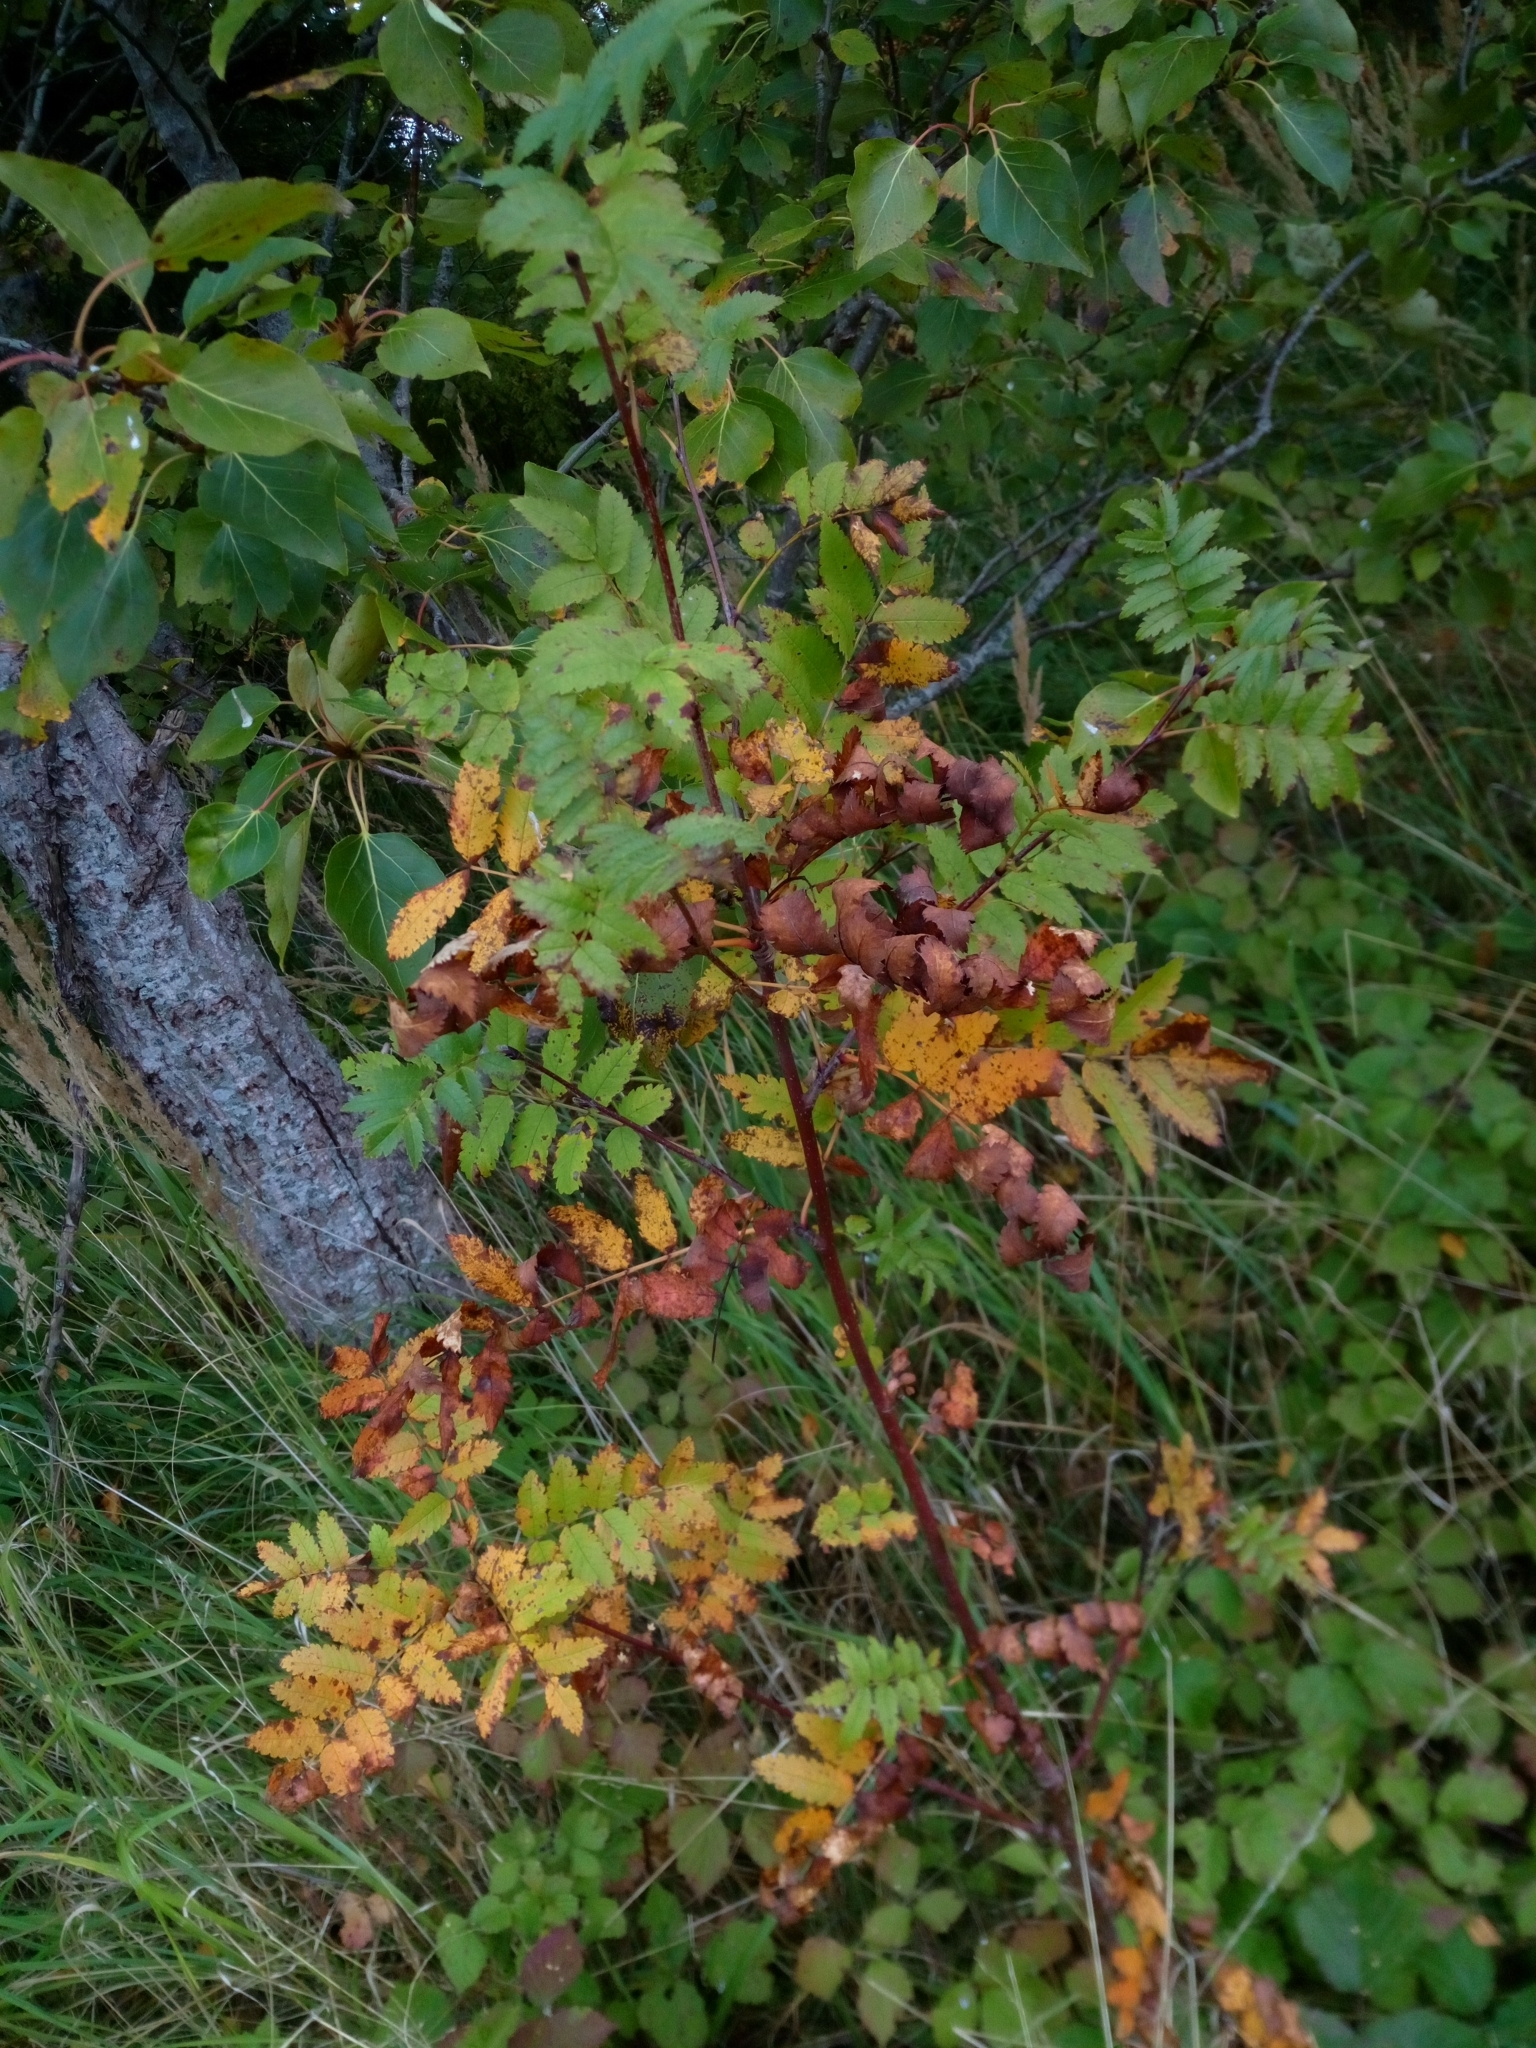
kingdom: Plantae
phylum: Tracheophyta
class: Magnoliopsida
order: Rosales
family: Rosaceae
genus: Sorbus
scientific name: Sorbus aucuparia
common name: Rowan
